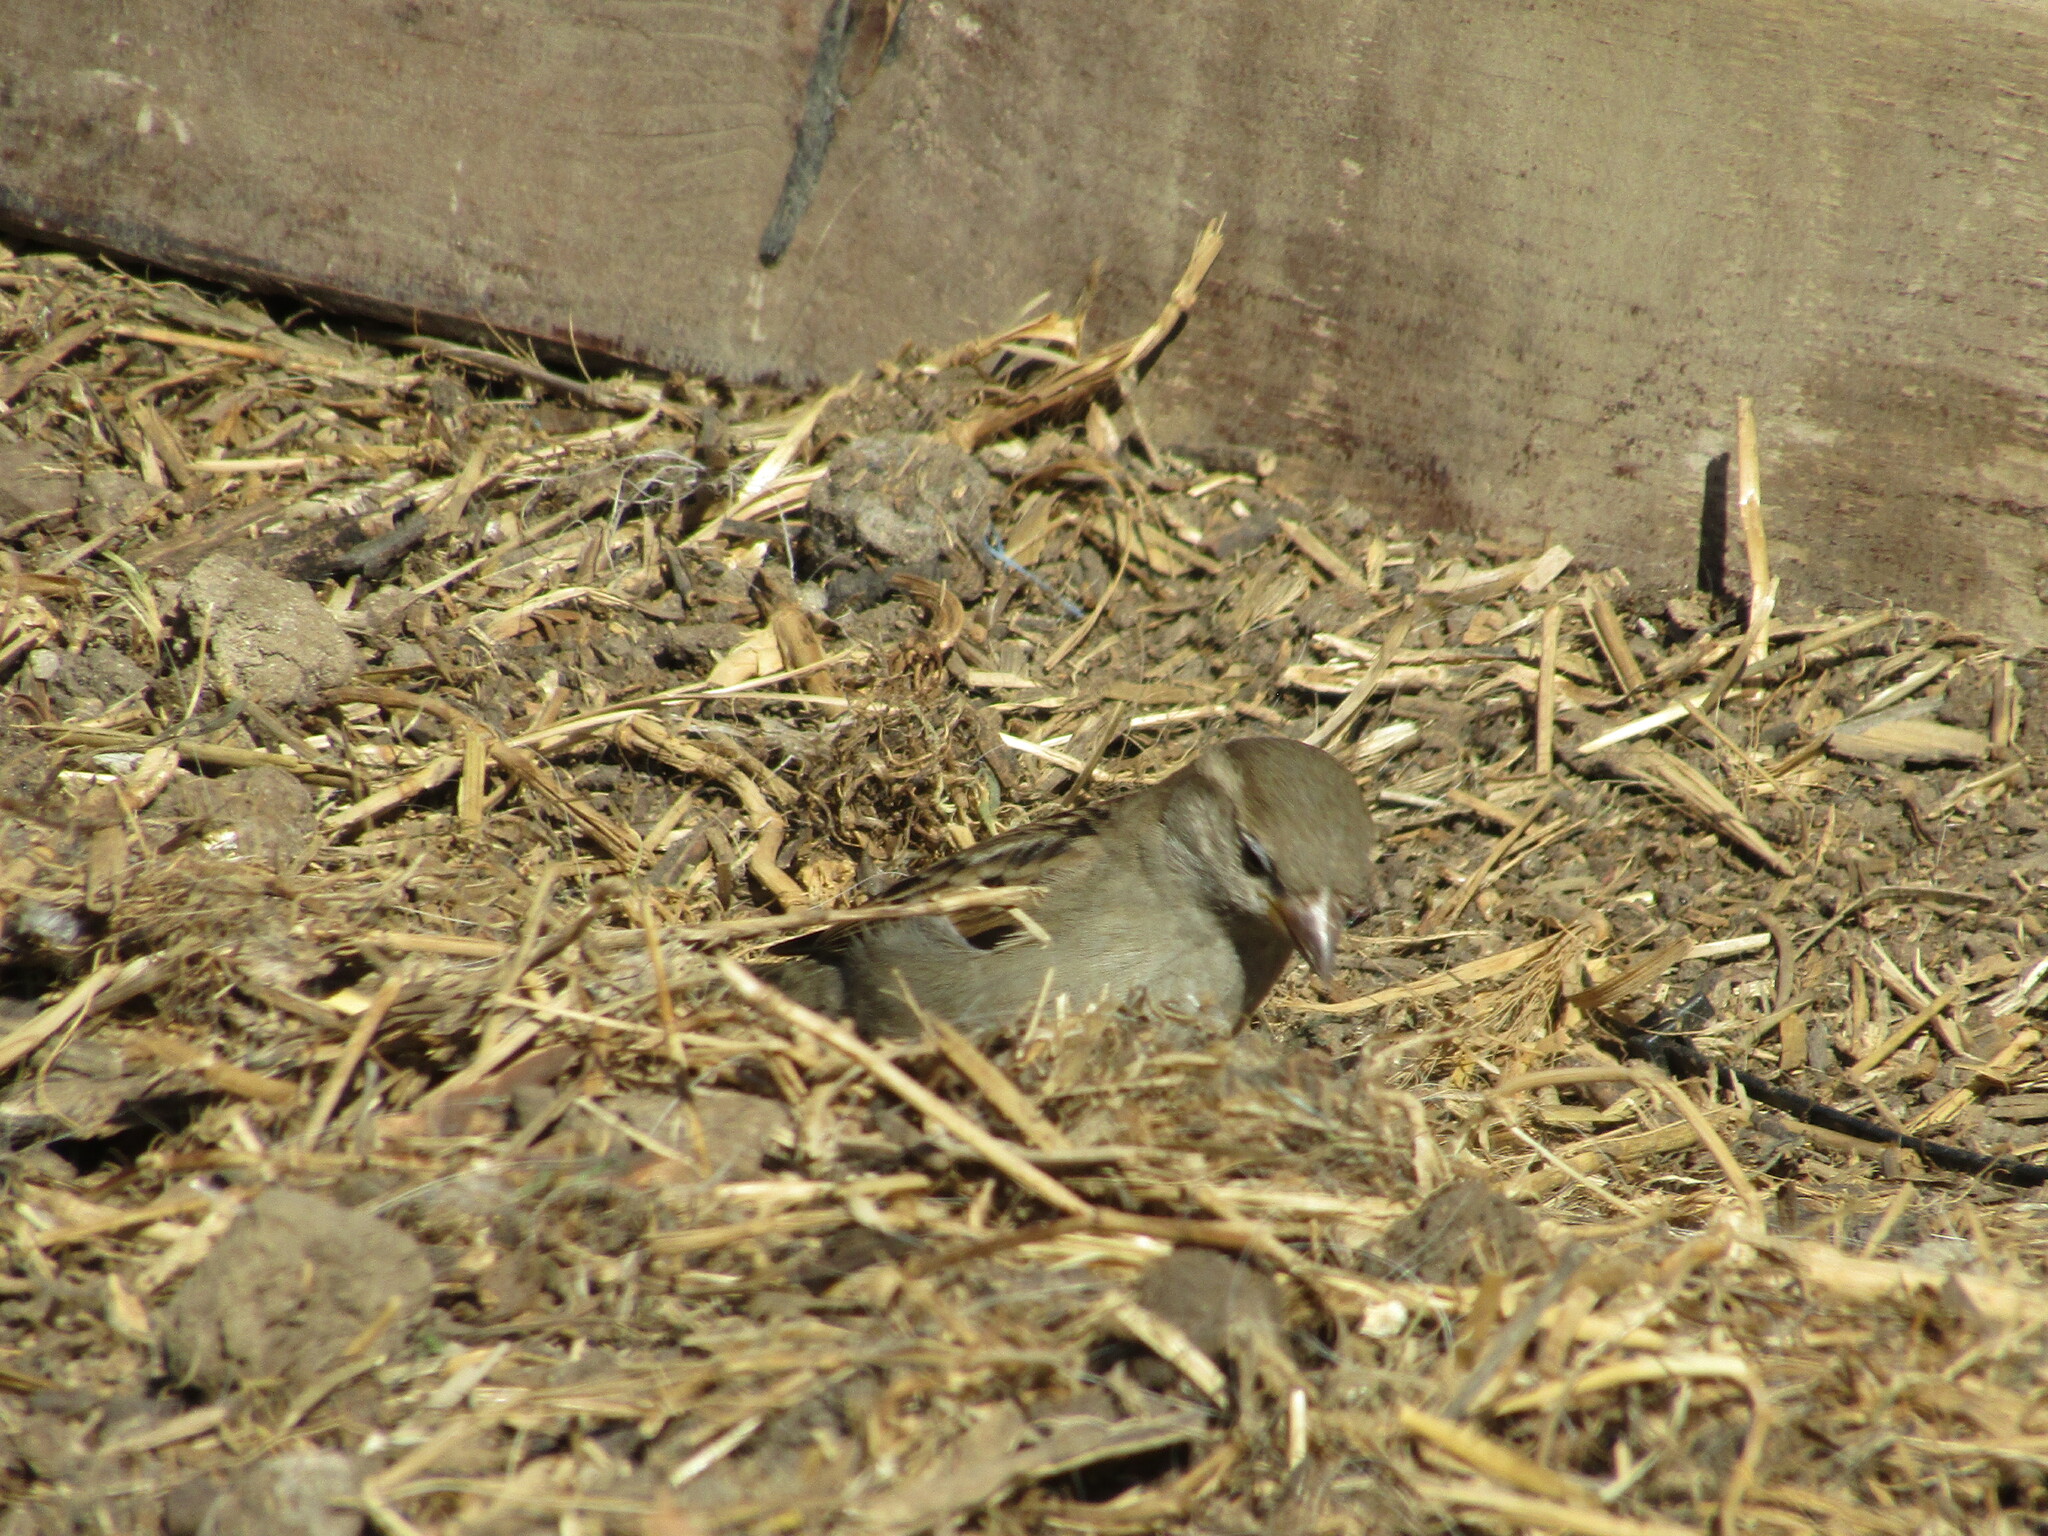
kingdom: Animalia
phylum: Chordata
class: Aves
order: Passeriformes
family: Passeridae
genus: Passer
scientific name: Passer domesticus
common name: House sparrow
